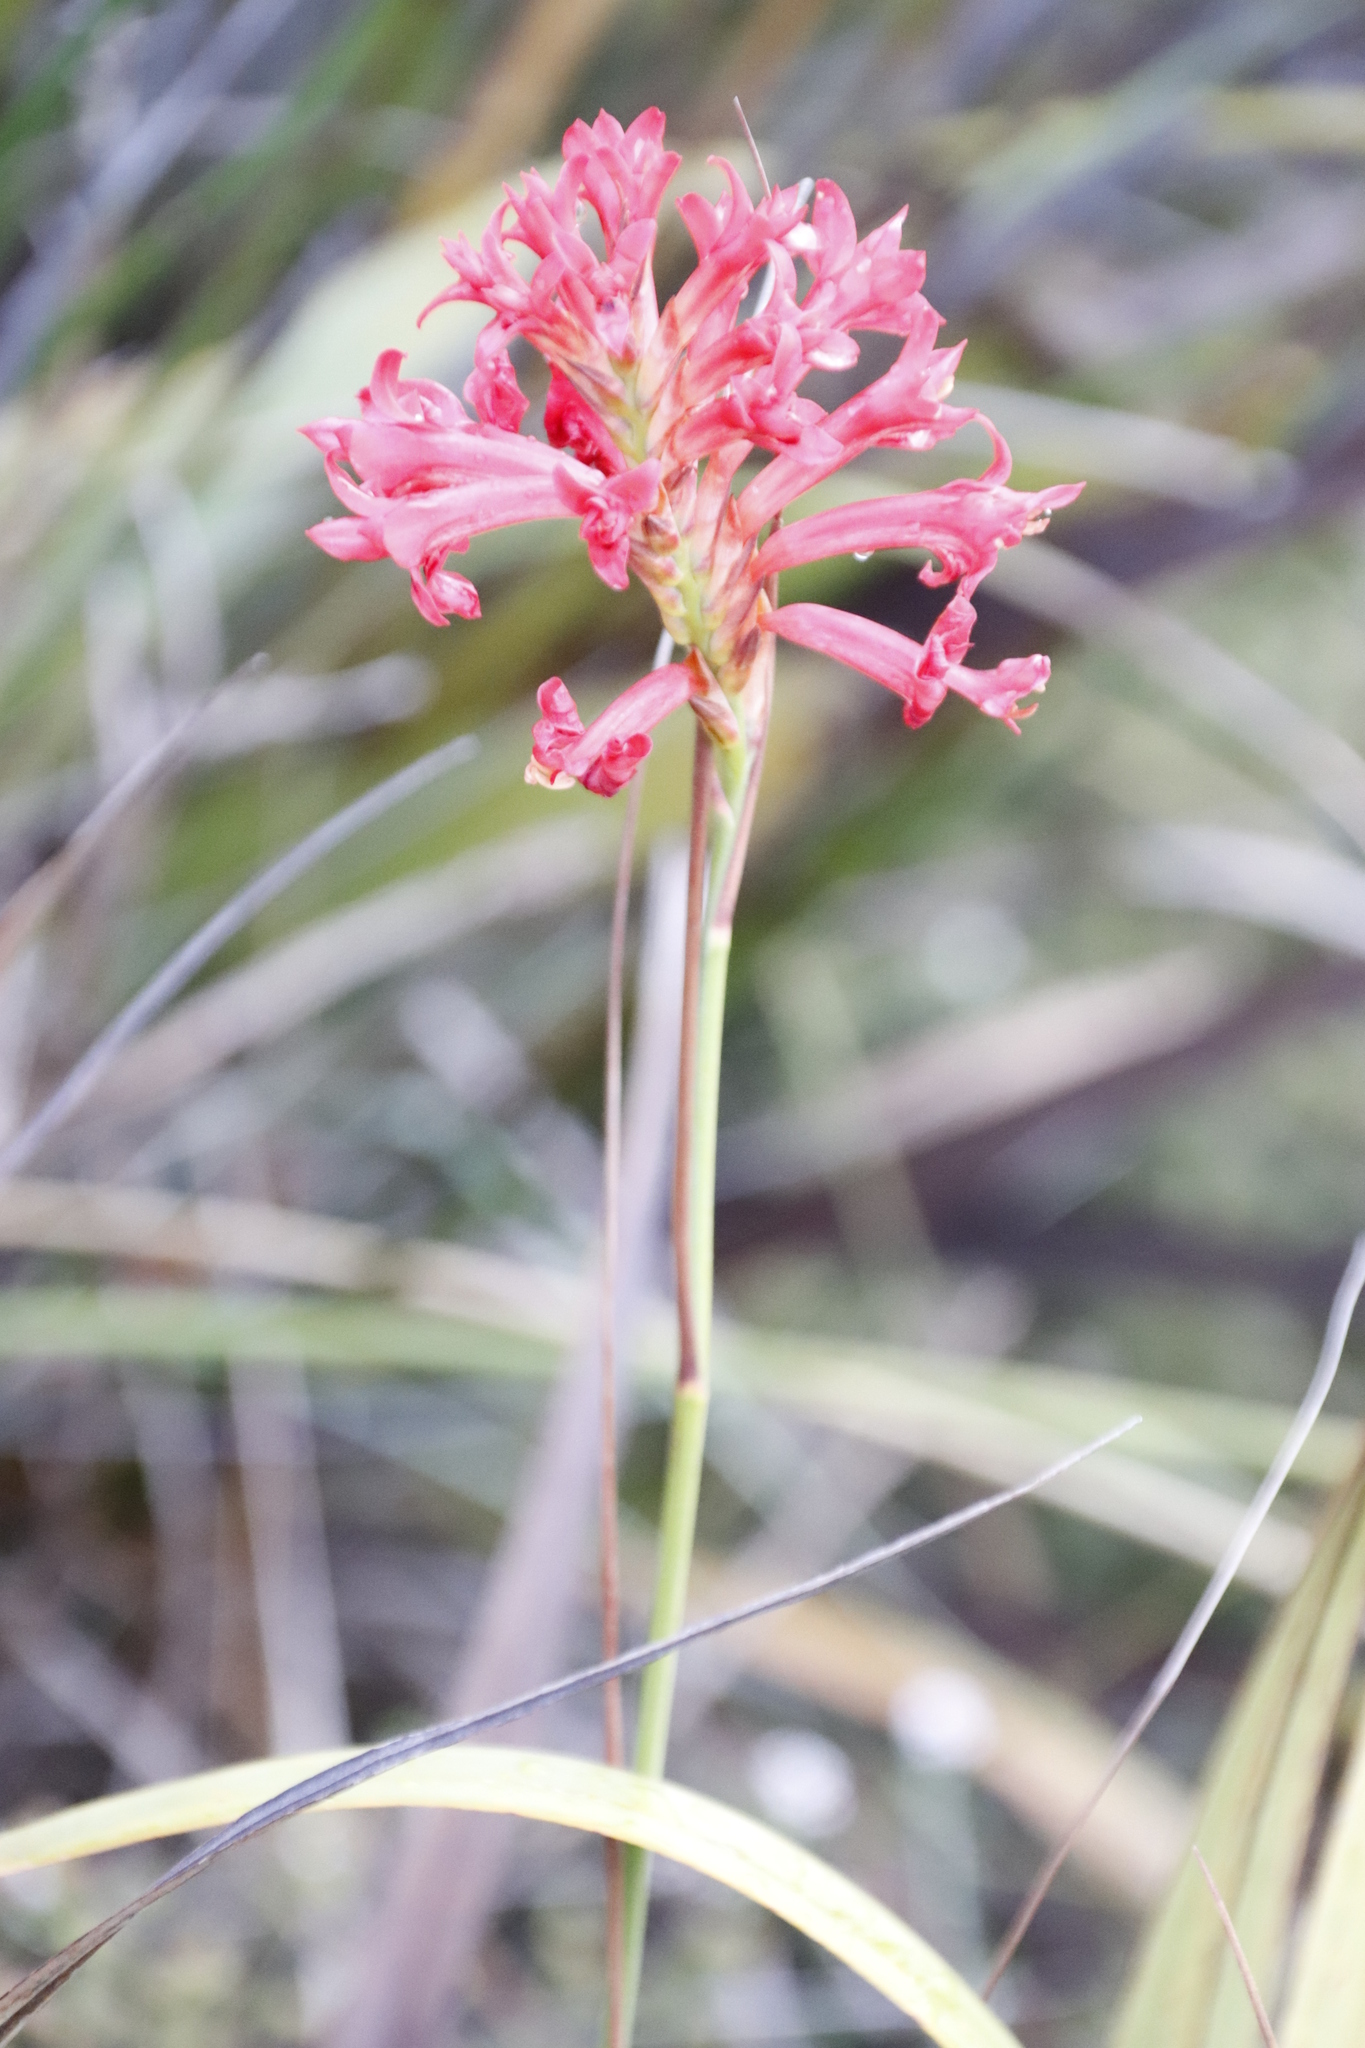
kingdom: Plantae
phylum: Tracheophyta
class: Liliopsida
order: Asparagales
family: Iridaceae
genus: Tritoniopsis
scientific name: Tritoniopsis triticea
